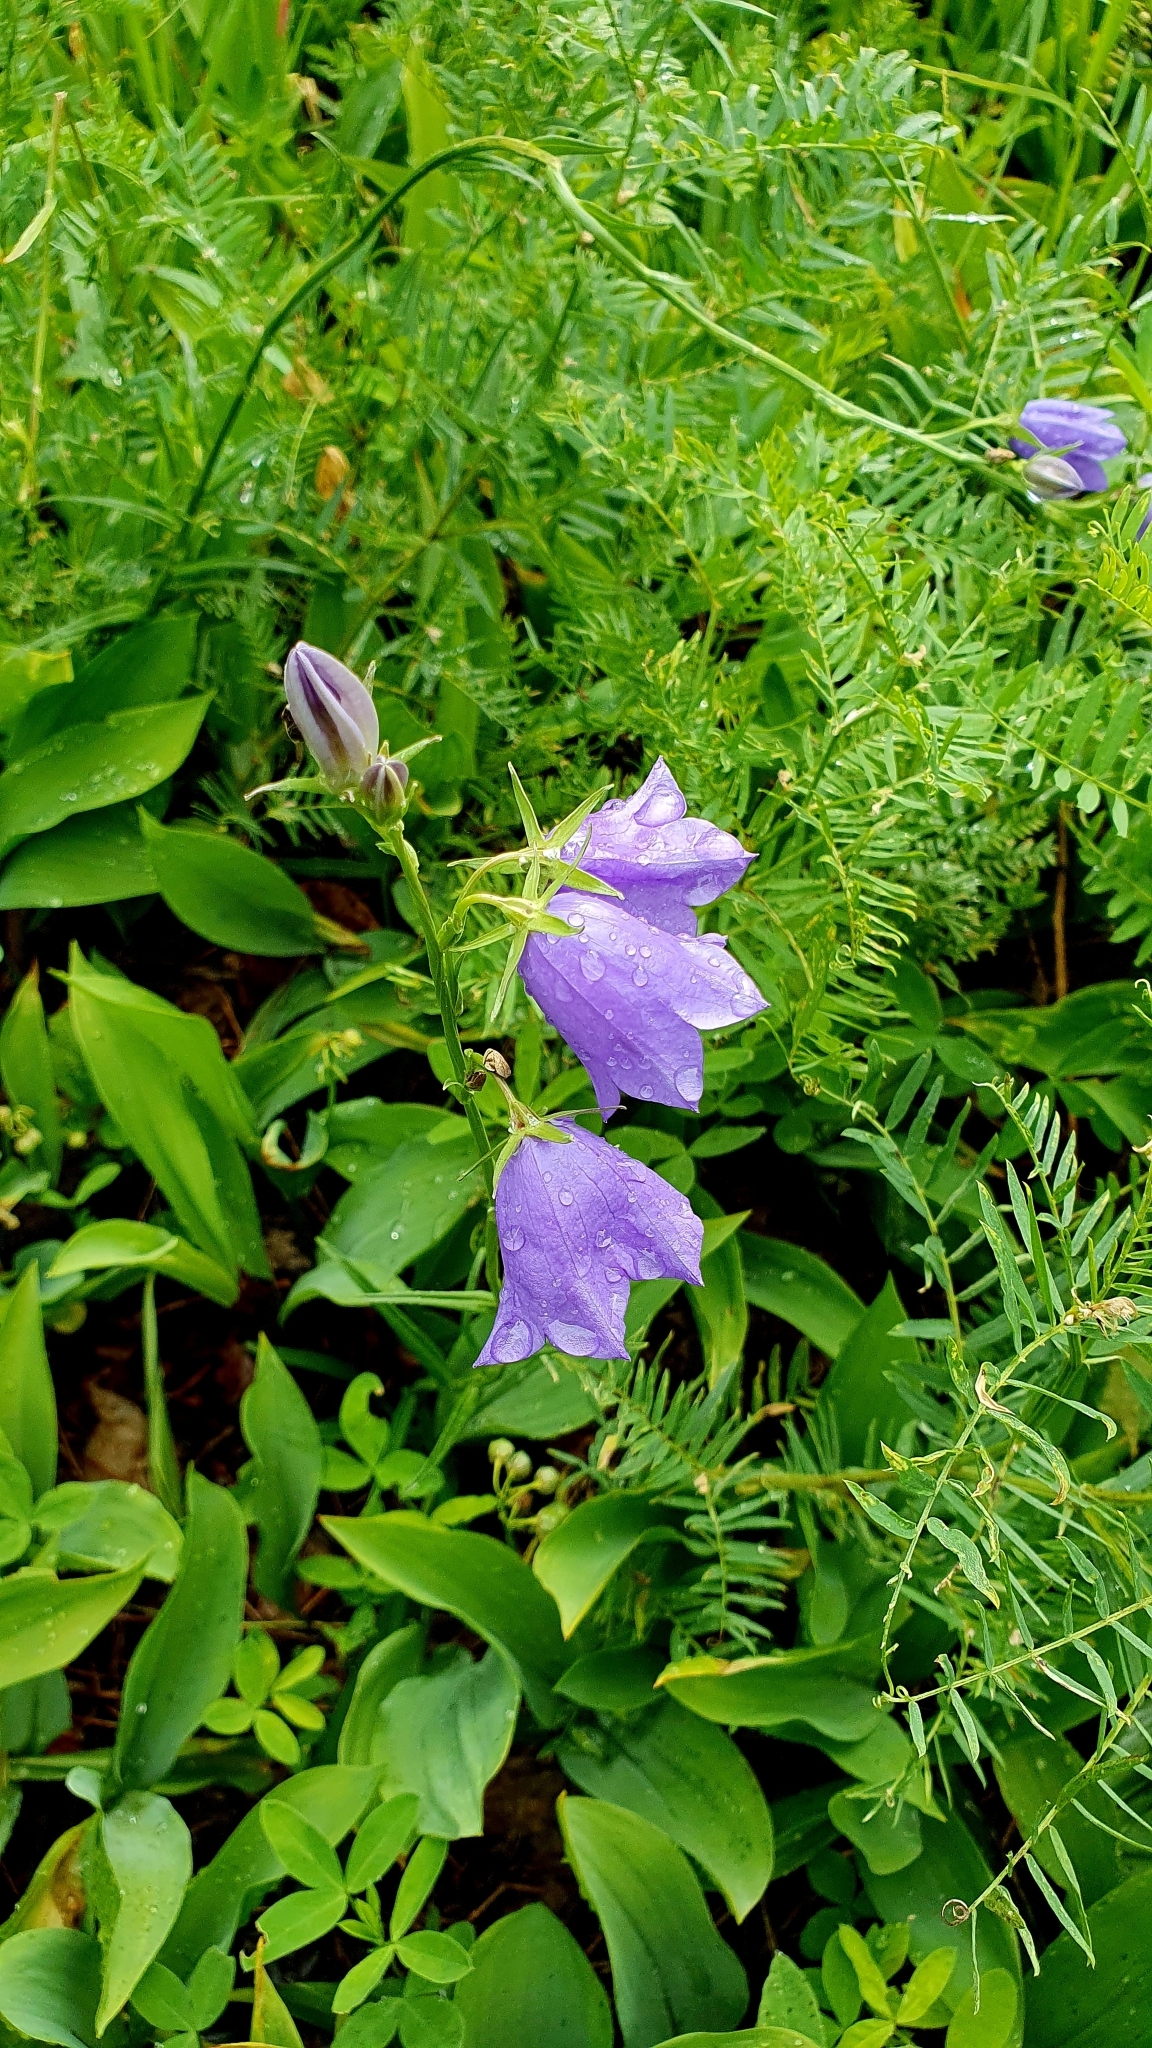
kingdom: Plantae
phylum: Tracheophyta
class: Magnoliopsida
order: Asterales
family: Campanulaceae
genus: Campanula
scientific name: Campanula persicifolia
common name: Peach-leaved bellflower
